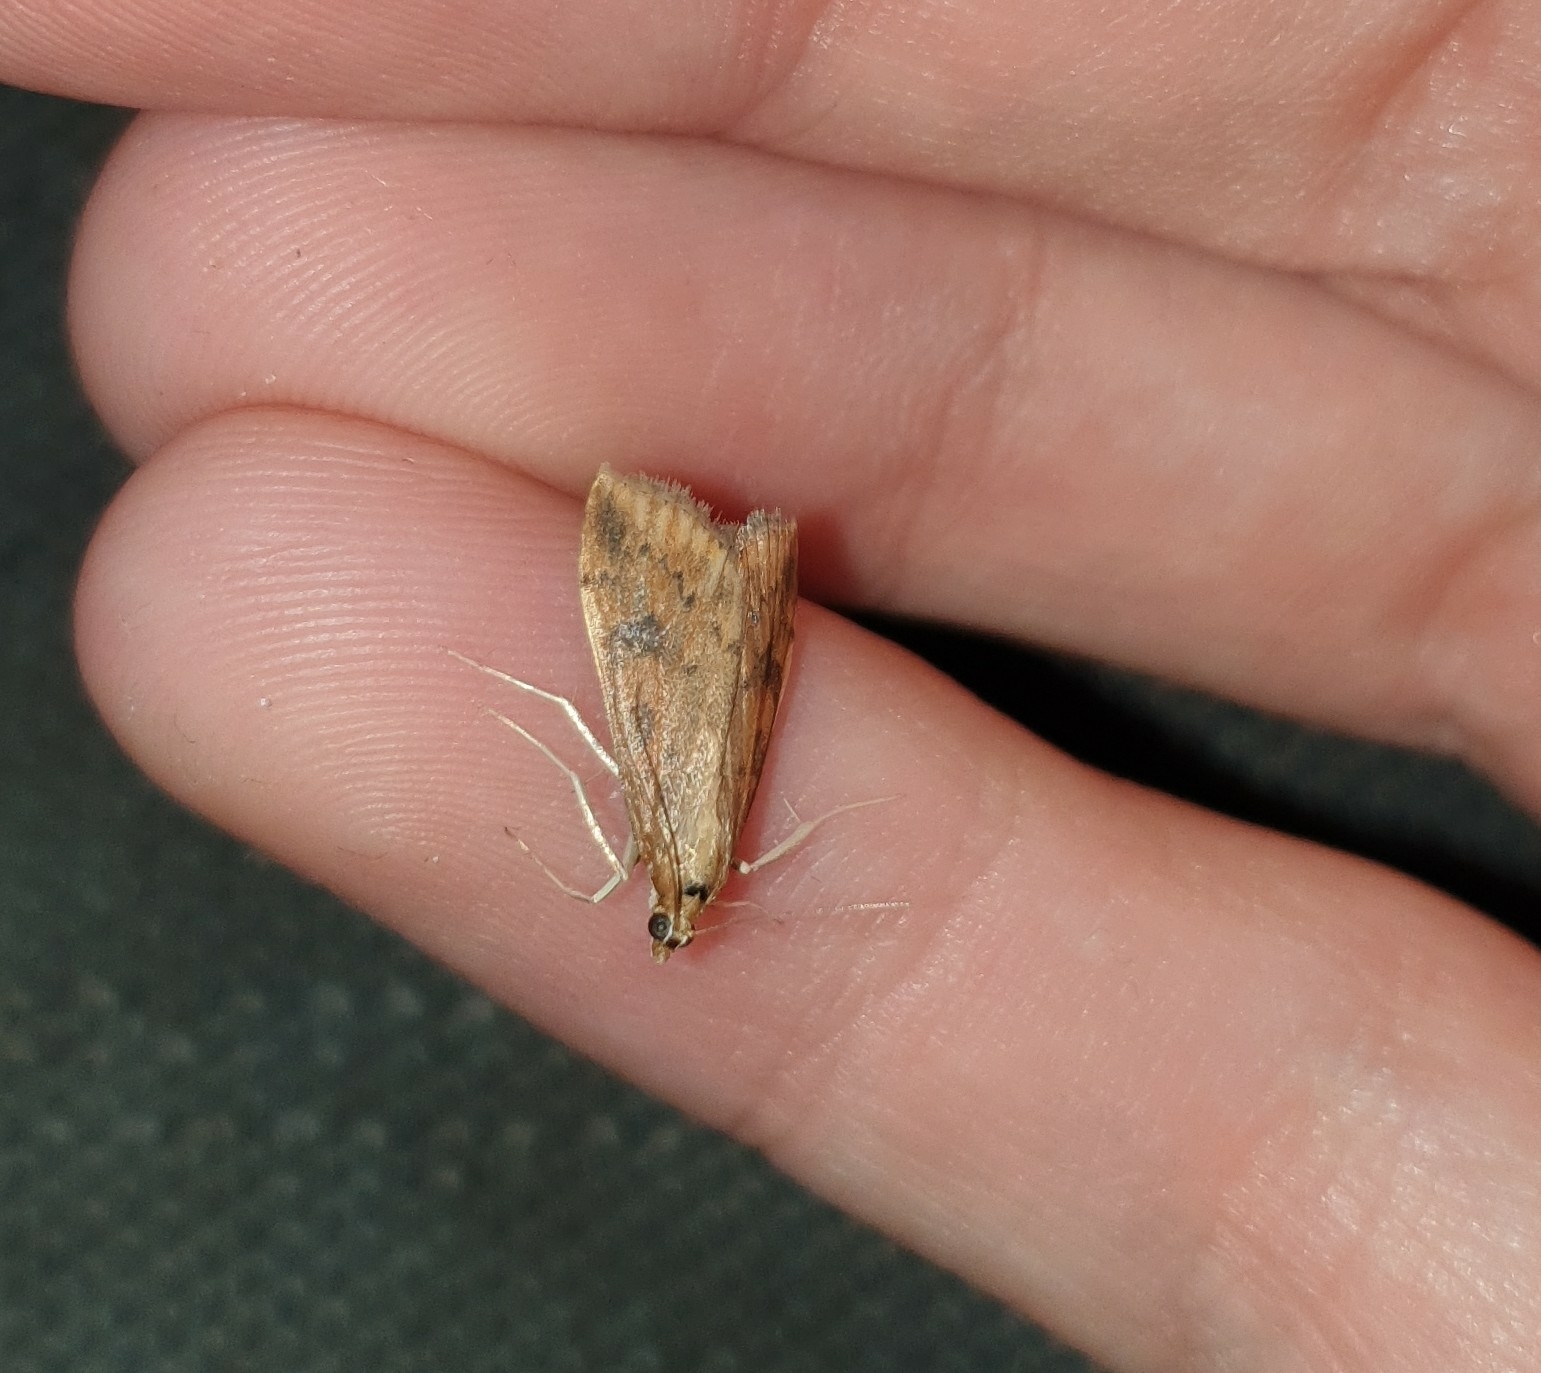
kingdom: Animalia
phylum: Arthropoda
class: Insecta
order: Lepidoptera
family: Crambidae
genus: Udea
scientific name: Udea ferrugalis
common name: Rusty dot
